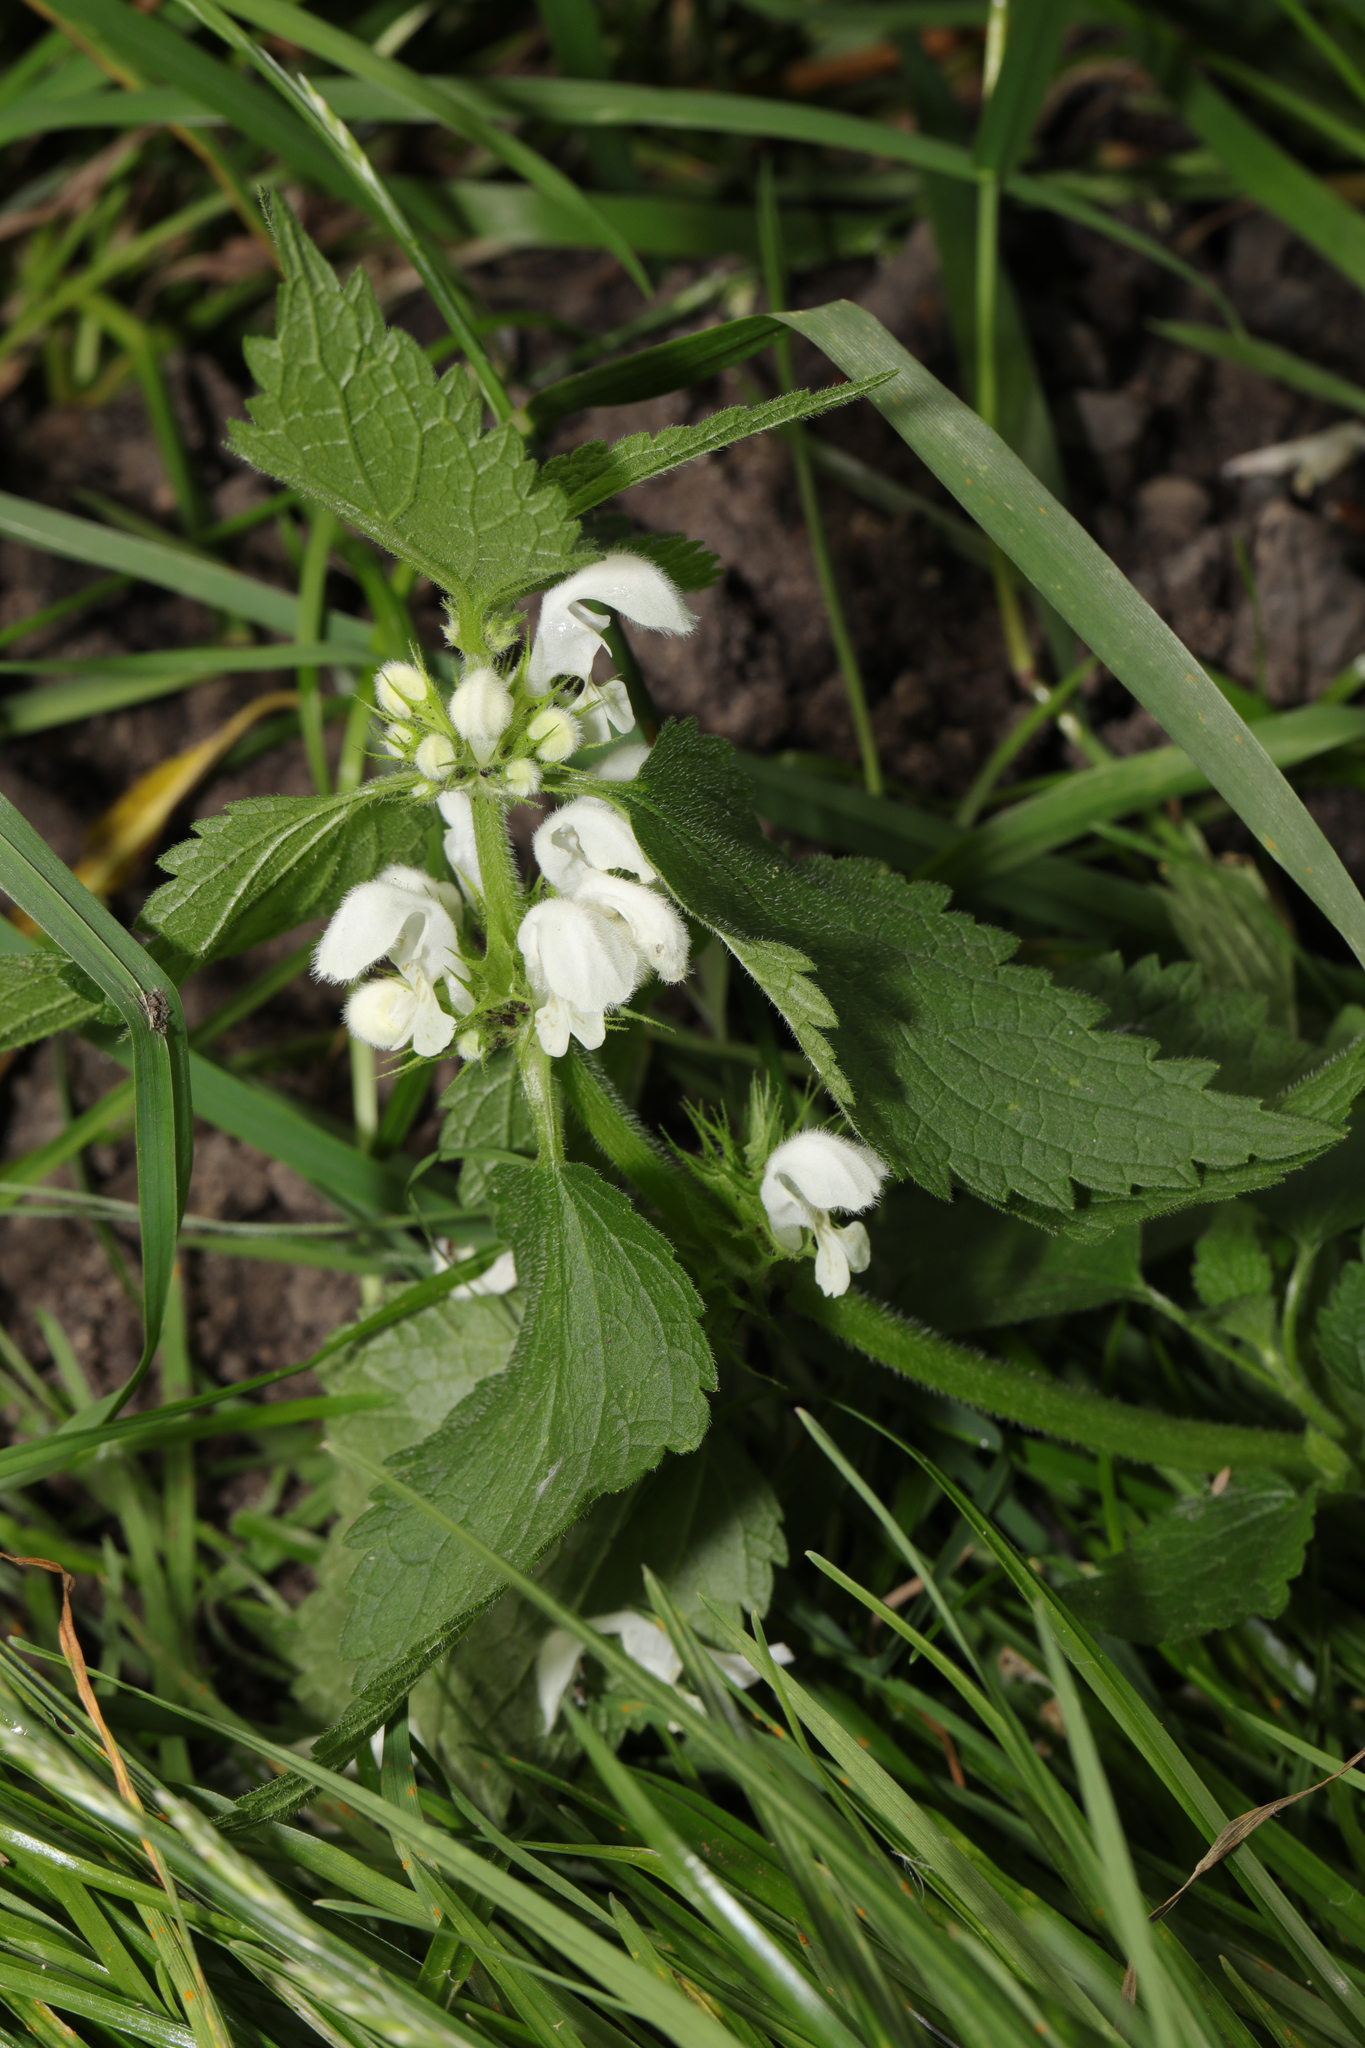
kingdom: Plantae
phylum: Tracheophyta
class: Magnoliopsida
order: Lamiales
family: Lamiaceae
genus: Lamium
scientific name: Lamium album
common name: White dead-nettle
